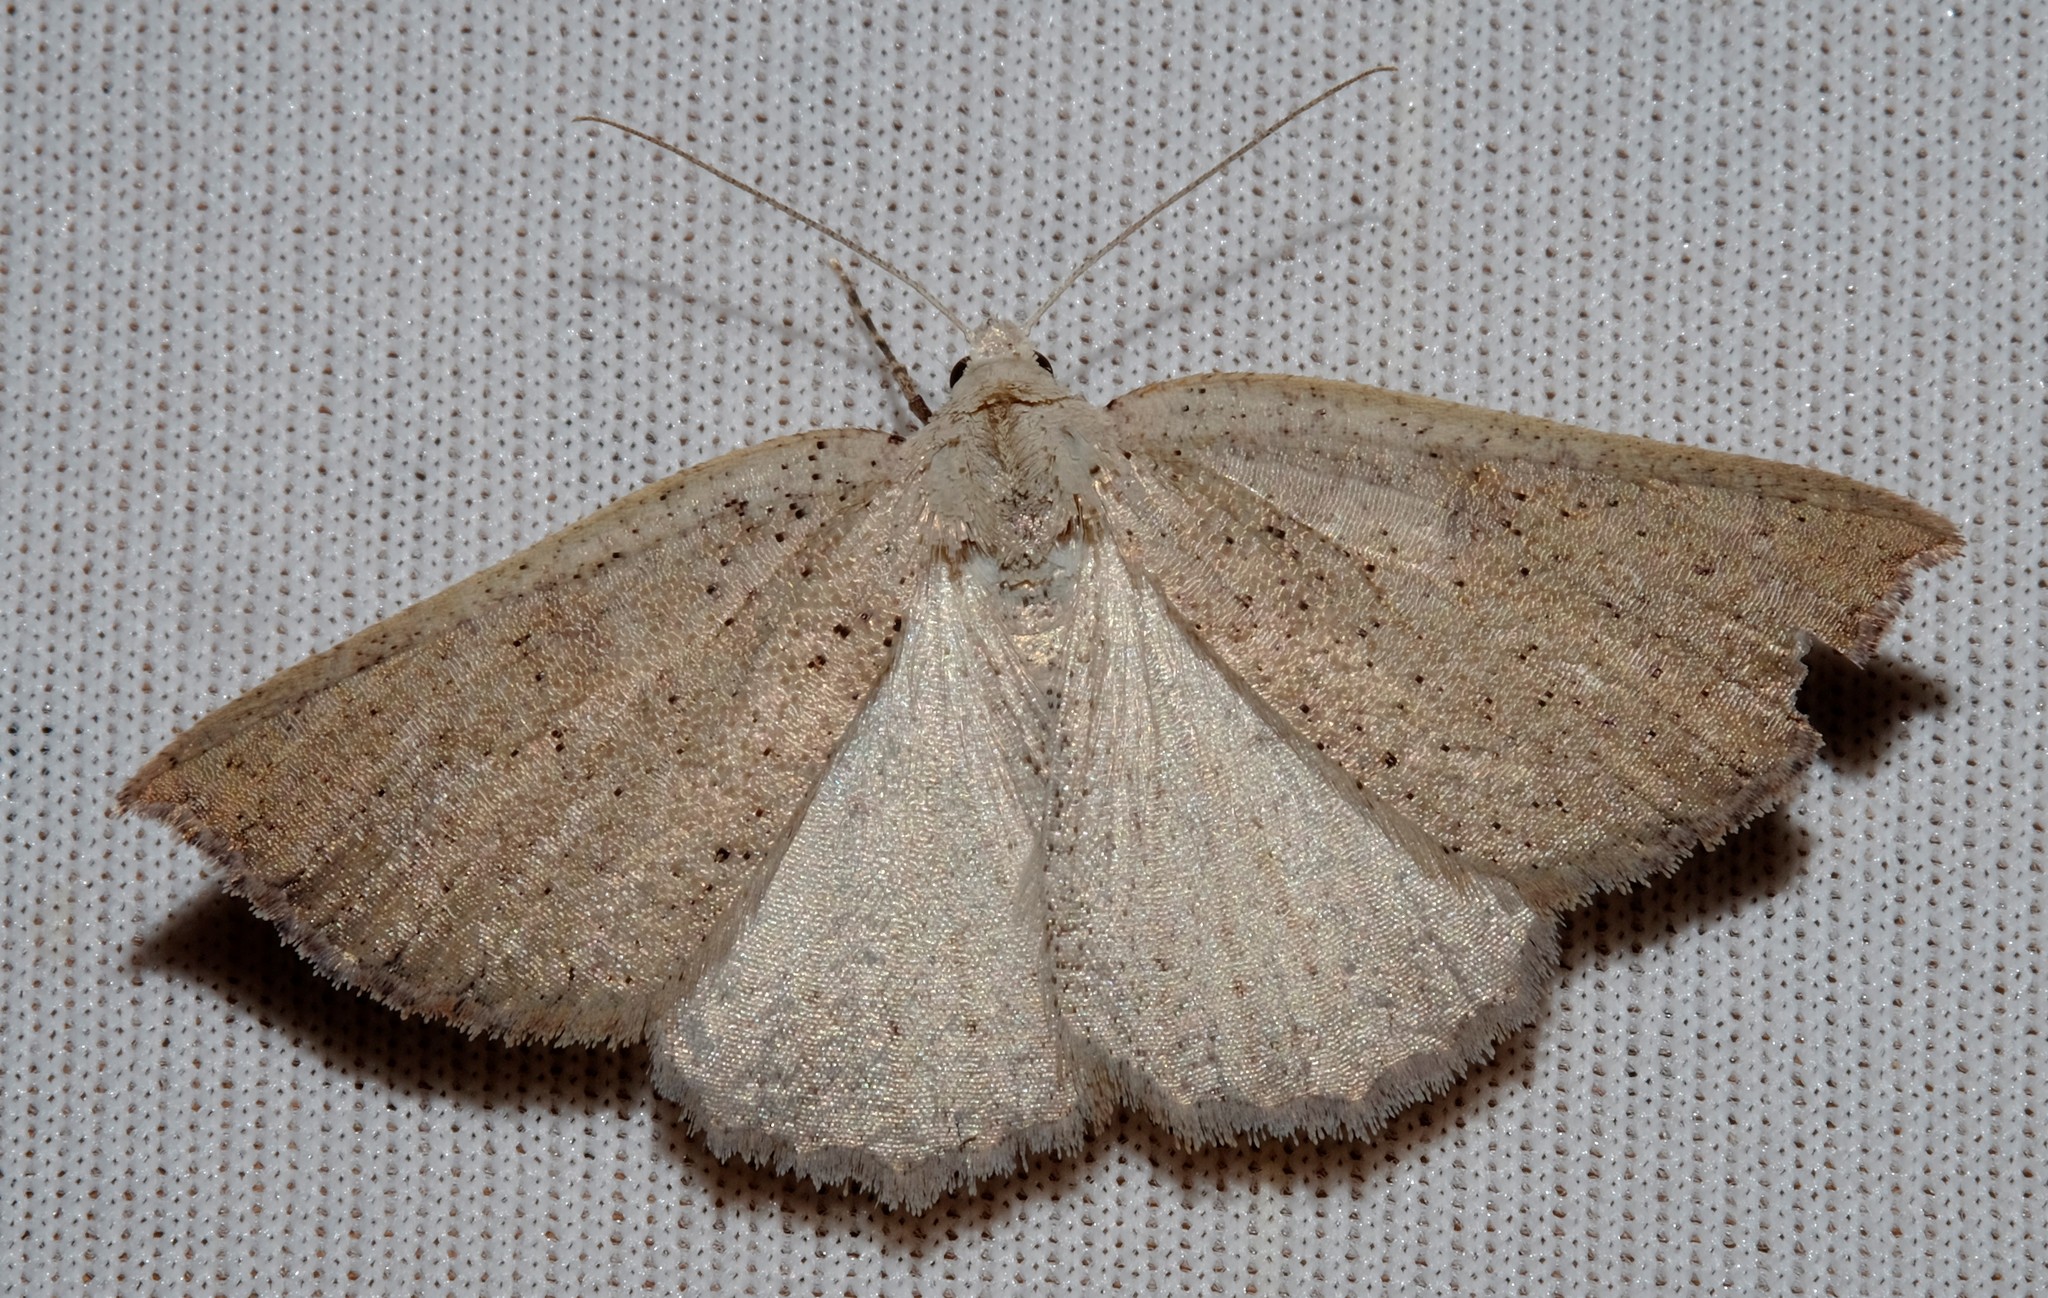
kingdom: Animalia
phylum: Arthropoda
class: Insecta
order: Lepidoptera
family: Geometridae
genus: Amelora
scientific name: Amelora demistis
